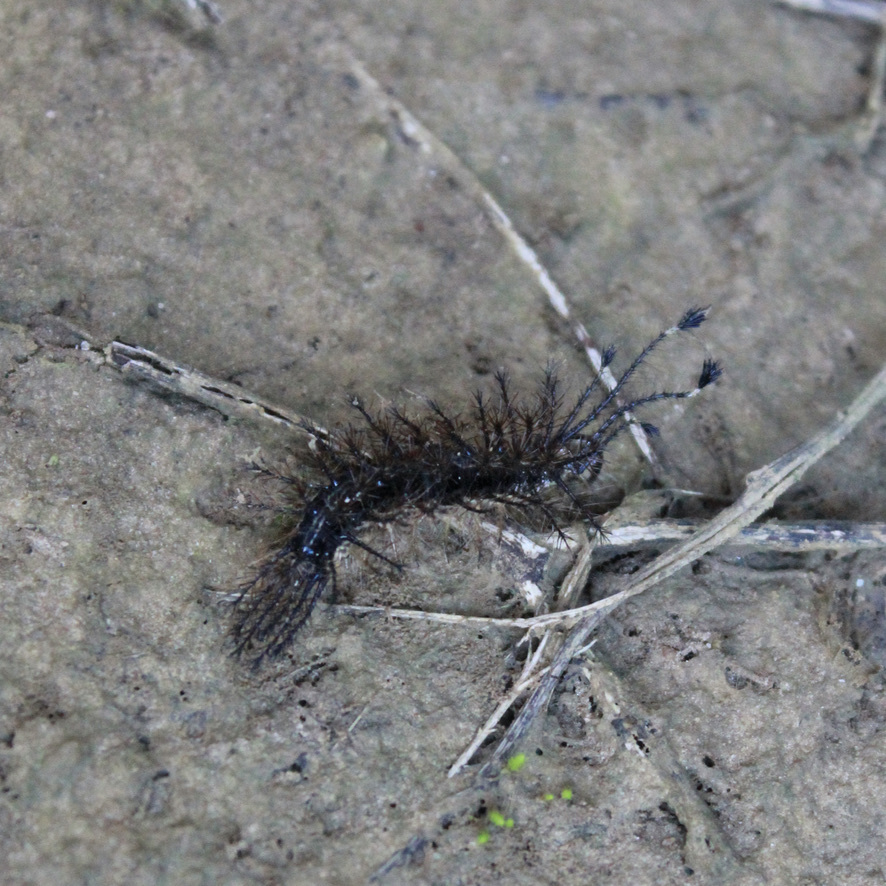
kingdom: Animalia
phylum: Arthropoda
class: Insecta
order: Lepidoptera
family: Saturniidae
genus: Hylesia
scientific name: Hylesia metabus
